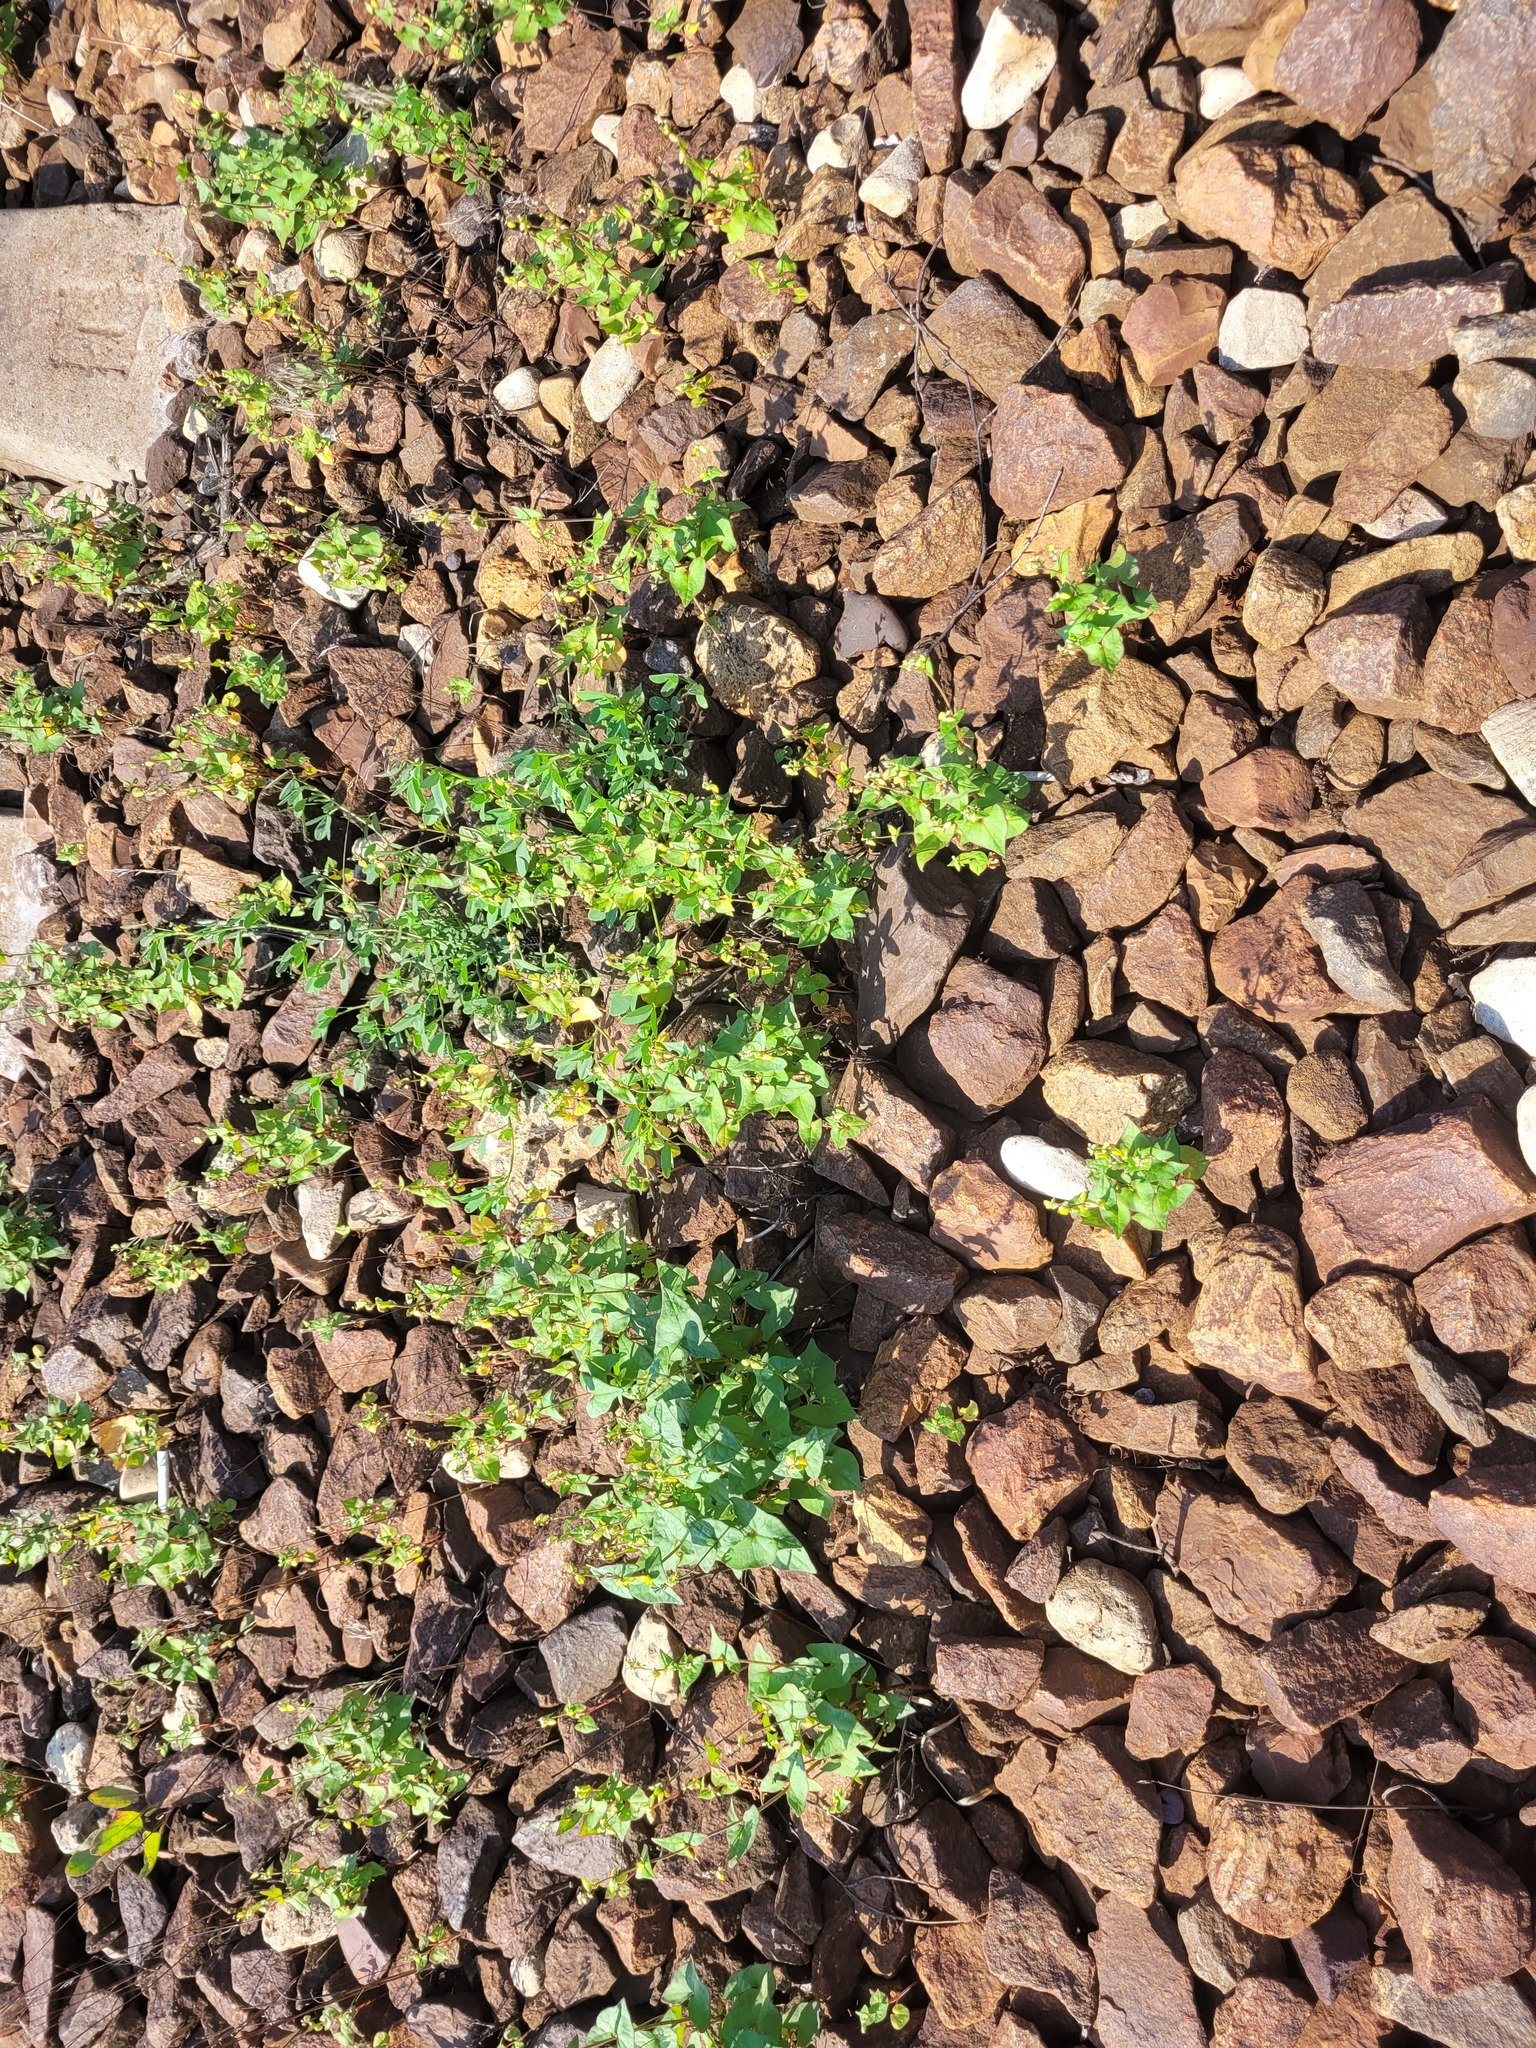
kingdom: Plantae
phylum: Tracheophyta
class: Magnoliopsida
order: Caryophyllales
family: Polygonaceae
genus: Fagopyrum
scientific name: Fagopyrum tataricum
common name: Green buckwheat
